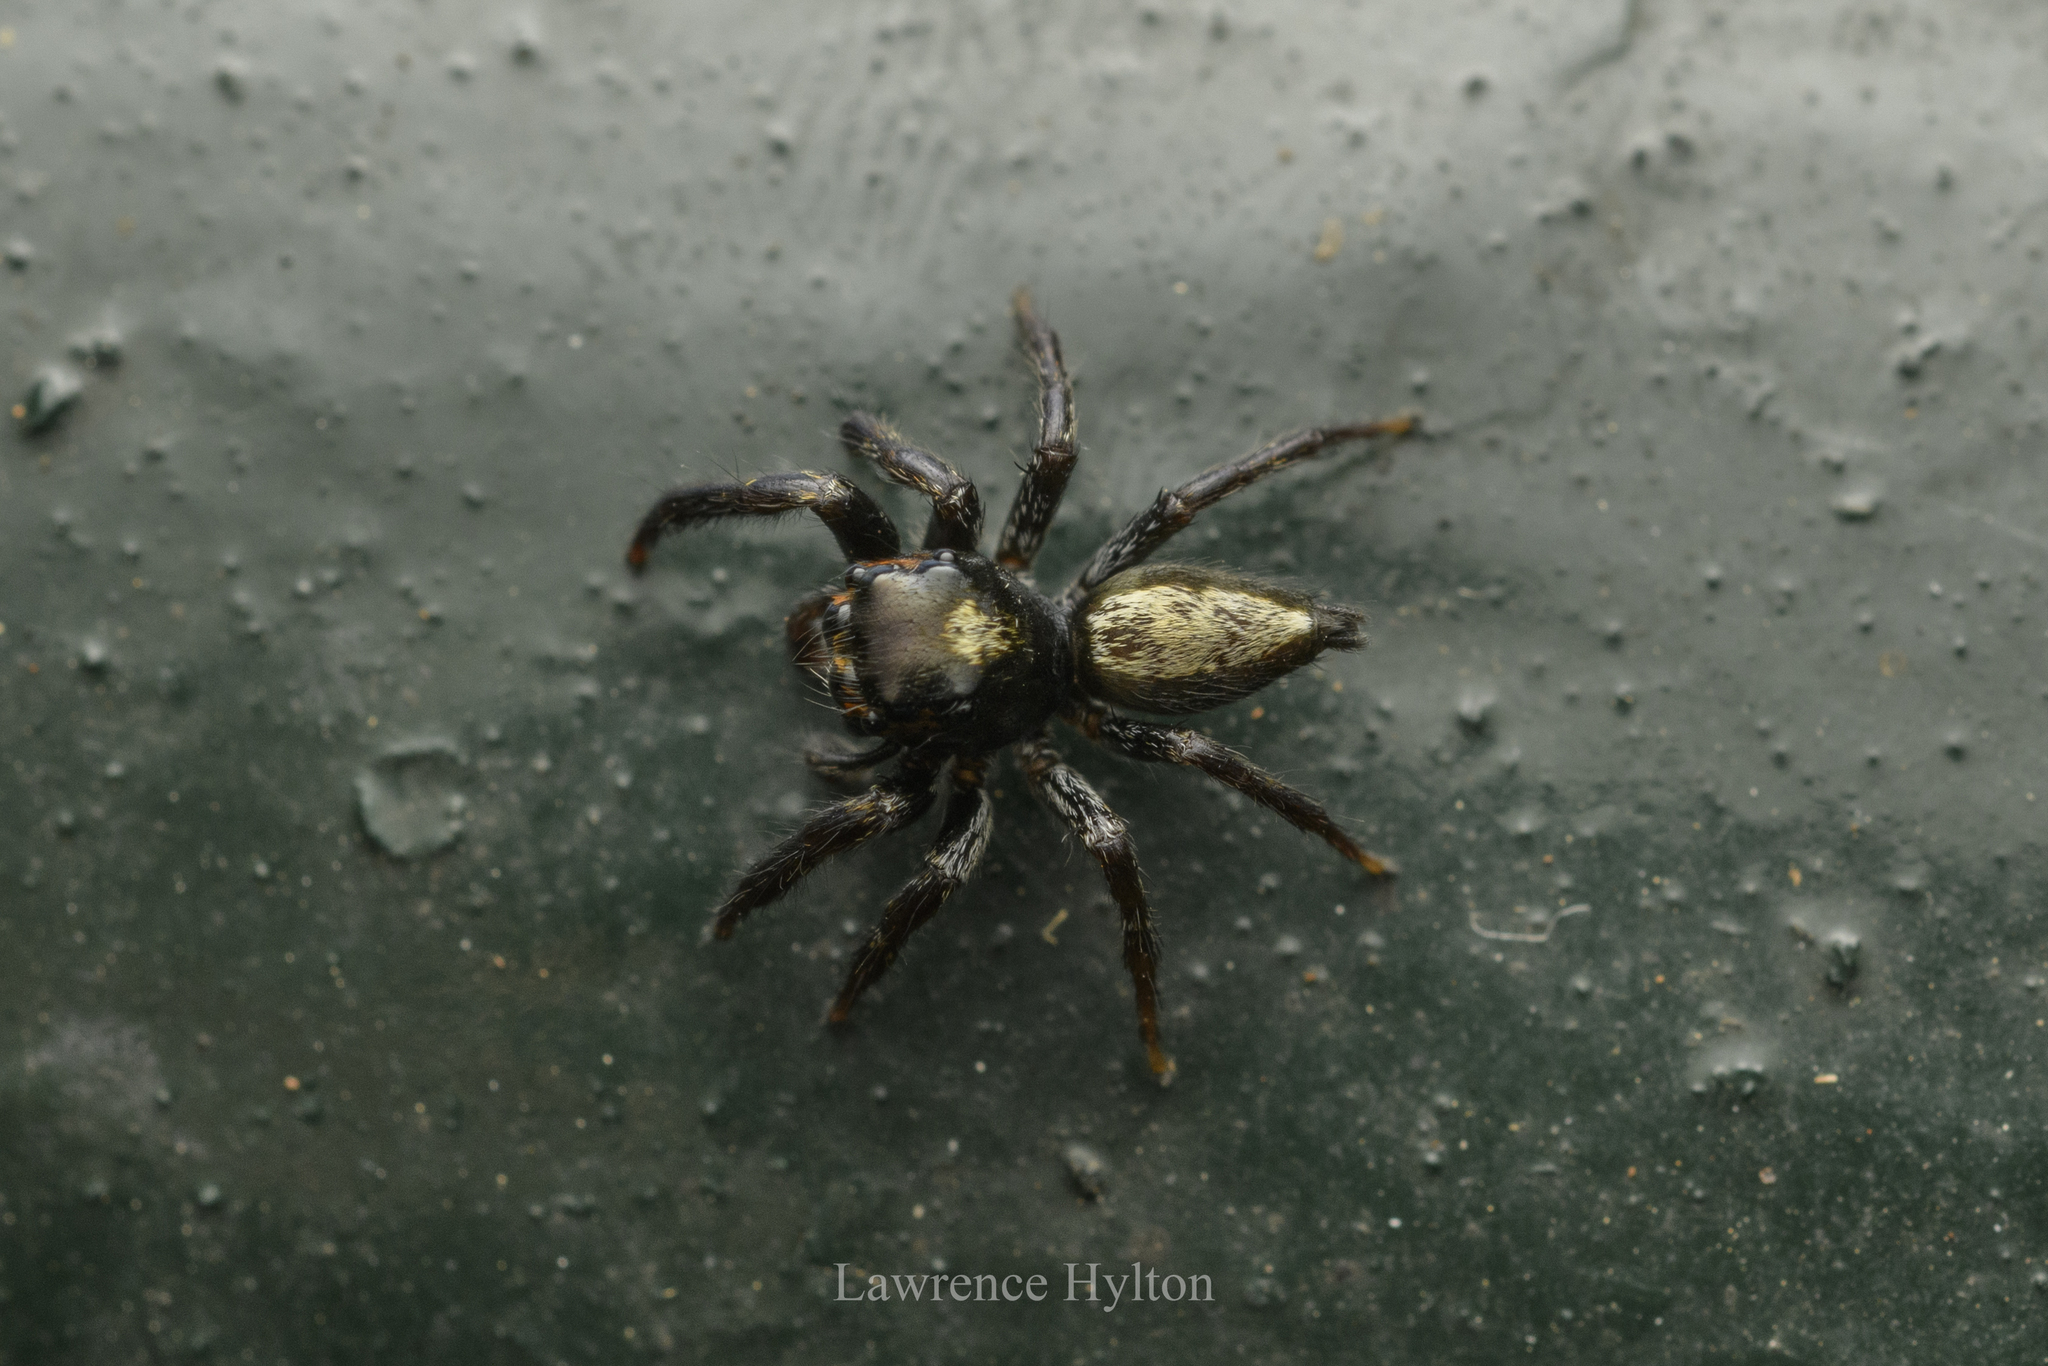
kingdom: Animalia
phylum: Arthropoda
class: Arachnida
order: Araneae
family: Salticidae
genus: Ptocasius
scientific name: Ptocasius strupifer
